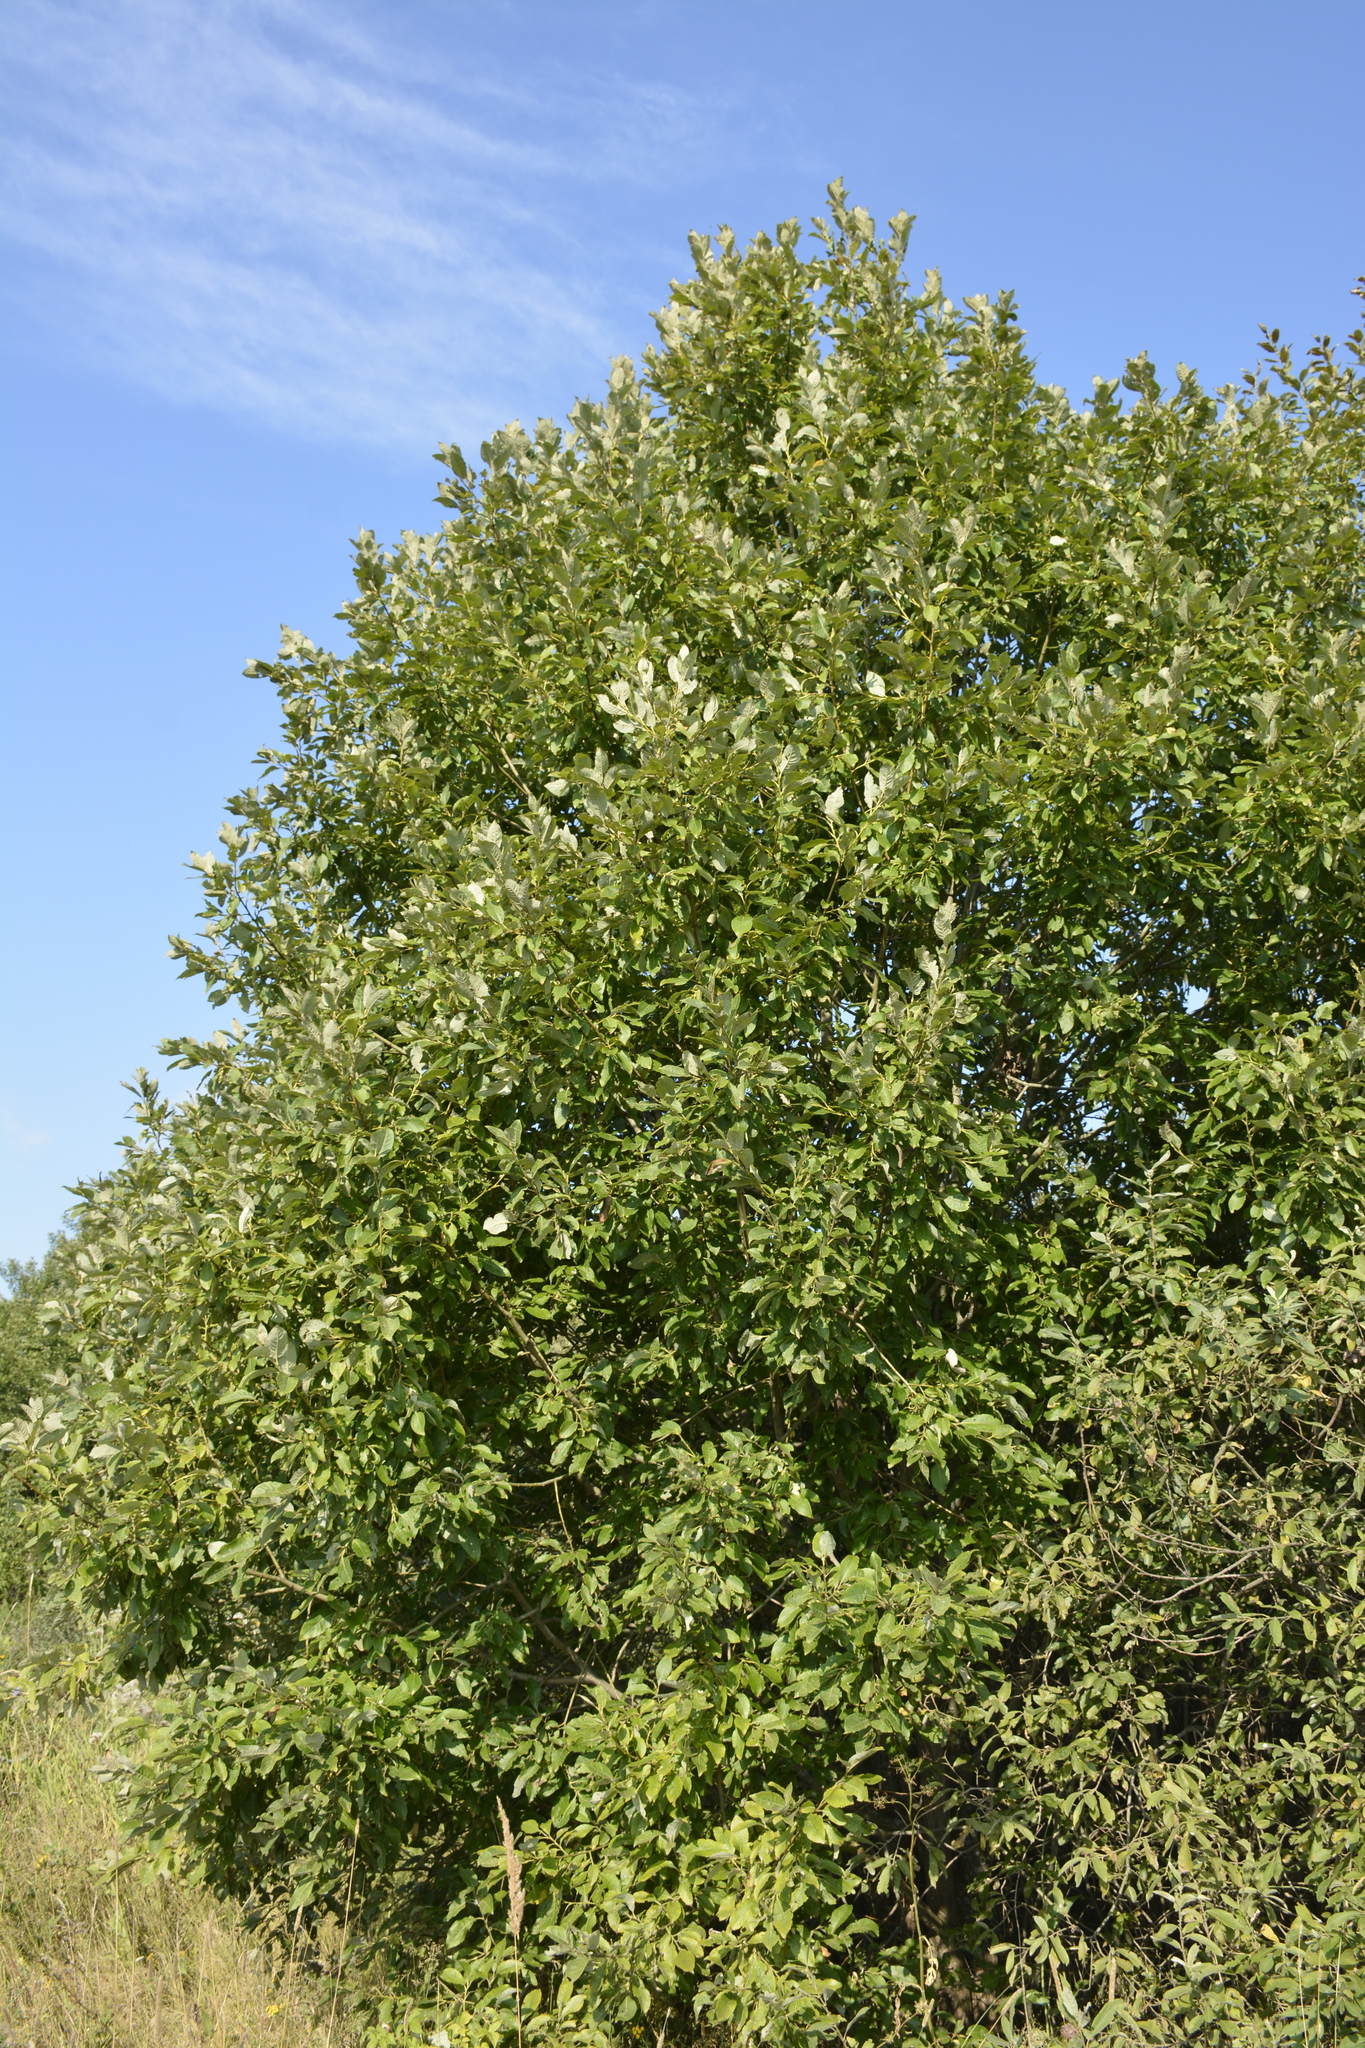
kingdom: Plantae
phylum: Tracheophyta
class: Magnoliopsida
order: Malpighiales
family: Salicaceae
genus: Salix
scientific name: Salix caprea
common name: Goat willow
